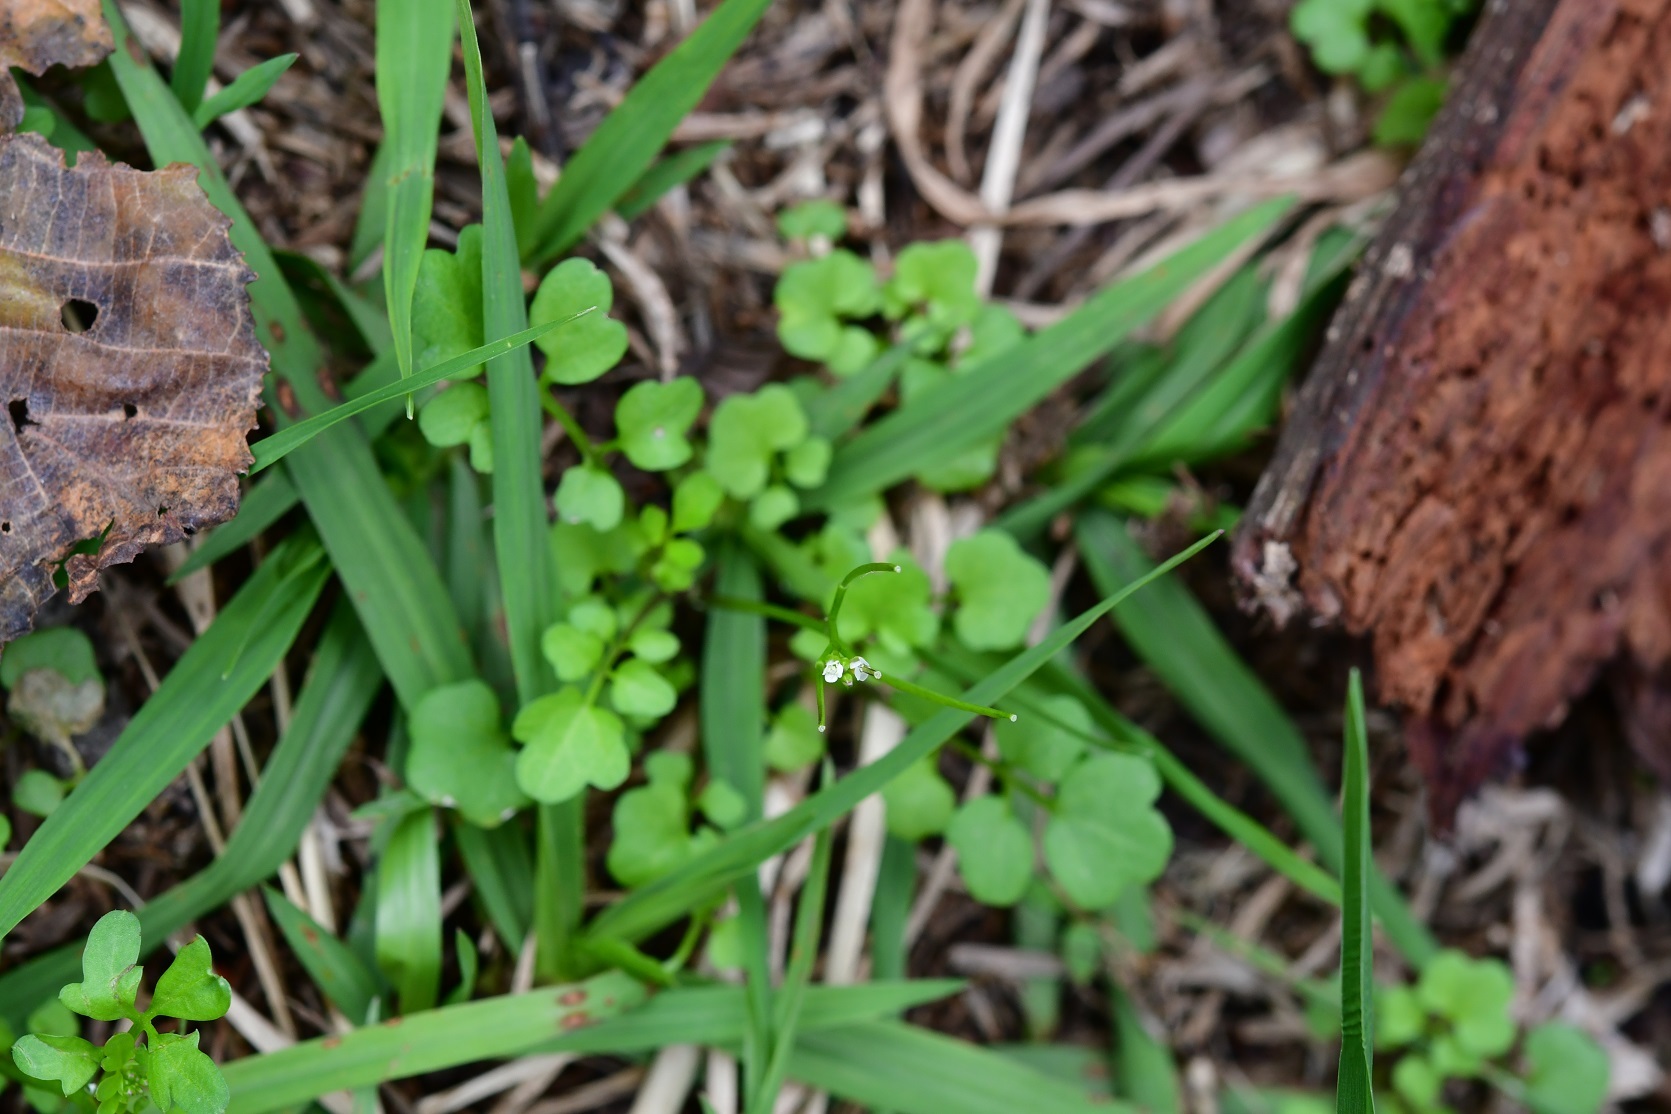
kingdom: Plantae
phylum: Tracheophyta
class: Magnoliopsida
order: Brassicales
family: Brassicaceae
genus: Cardamine
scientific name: Cardamine occulta
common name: Asian wavy bittercress
